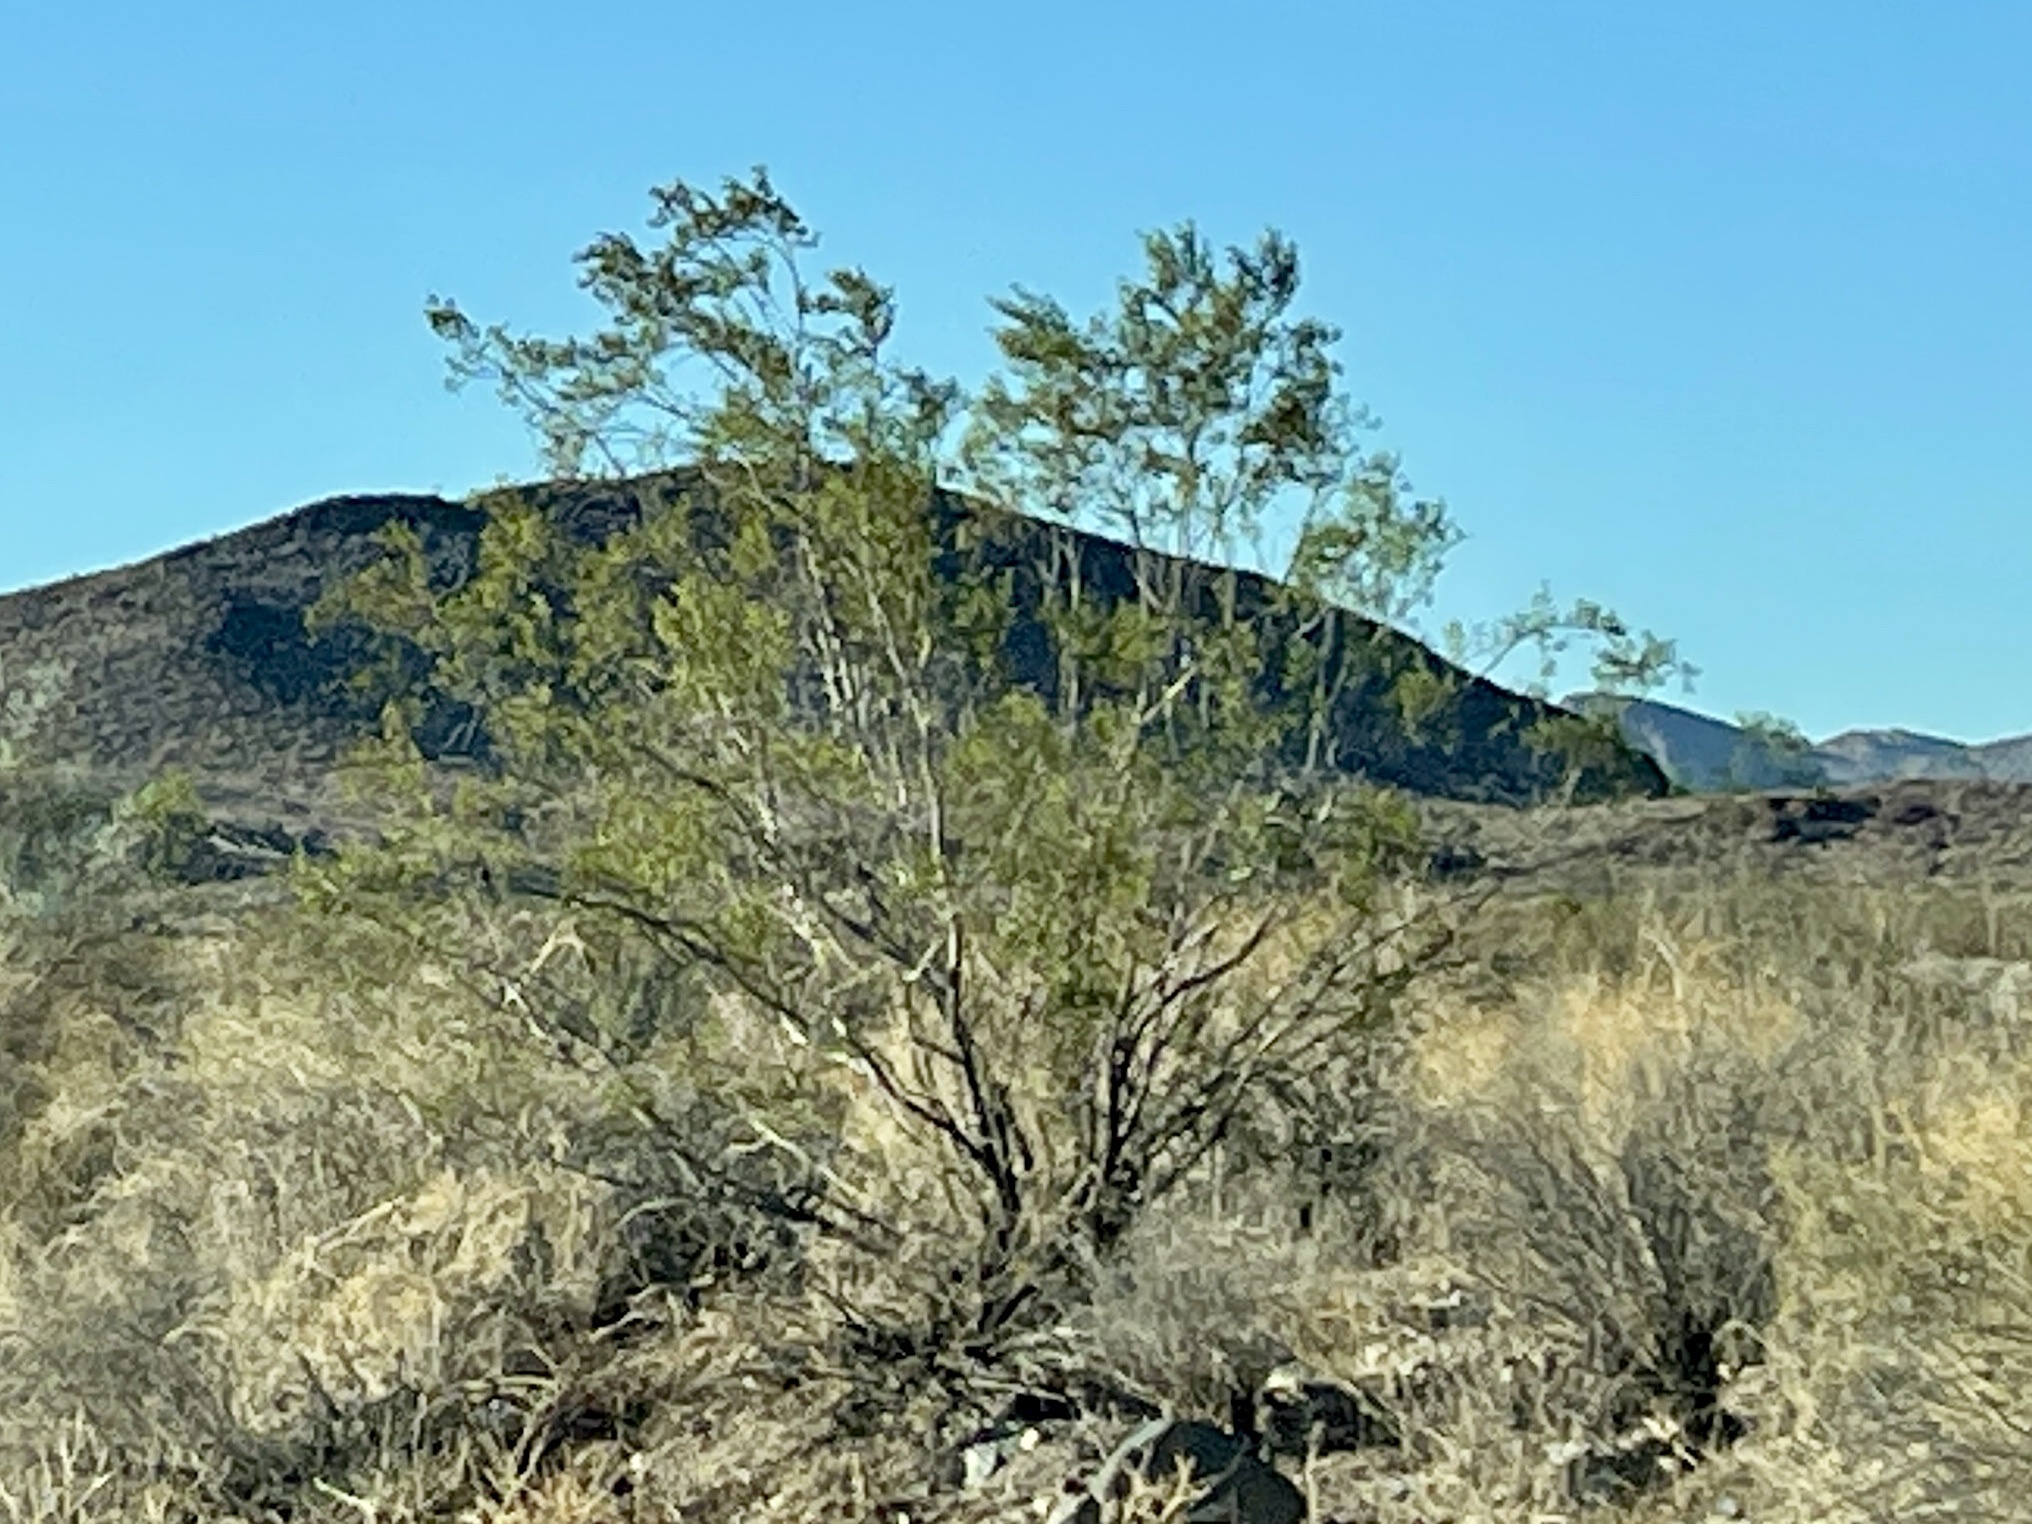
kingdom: Plantae
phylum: Tracheophyta
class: Magnoliopsida
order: Zygophyllales
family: Zygophyllaceae
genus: Larrea
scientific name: Larrea tridentata
